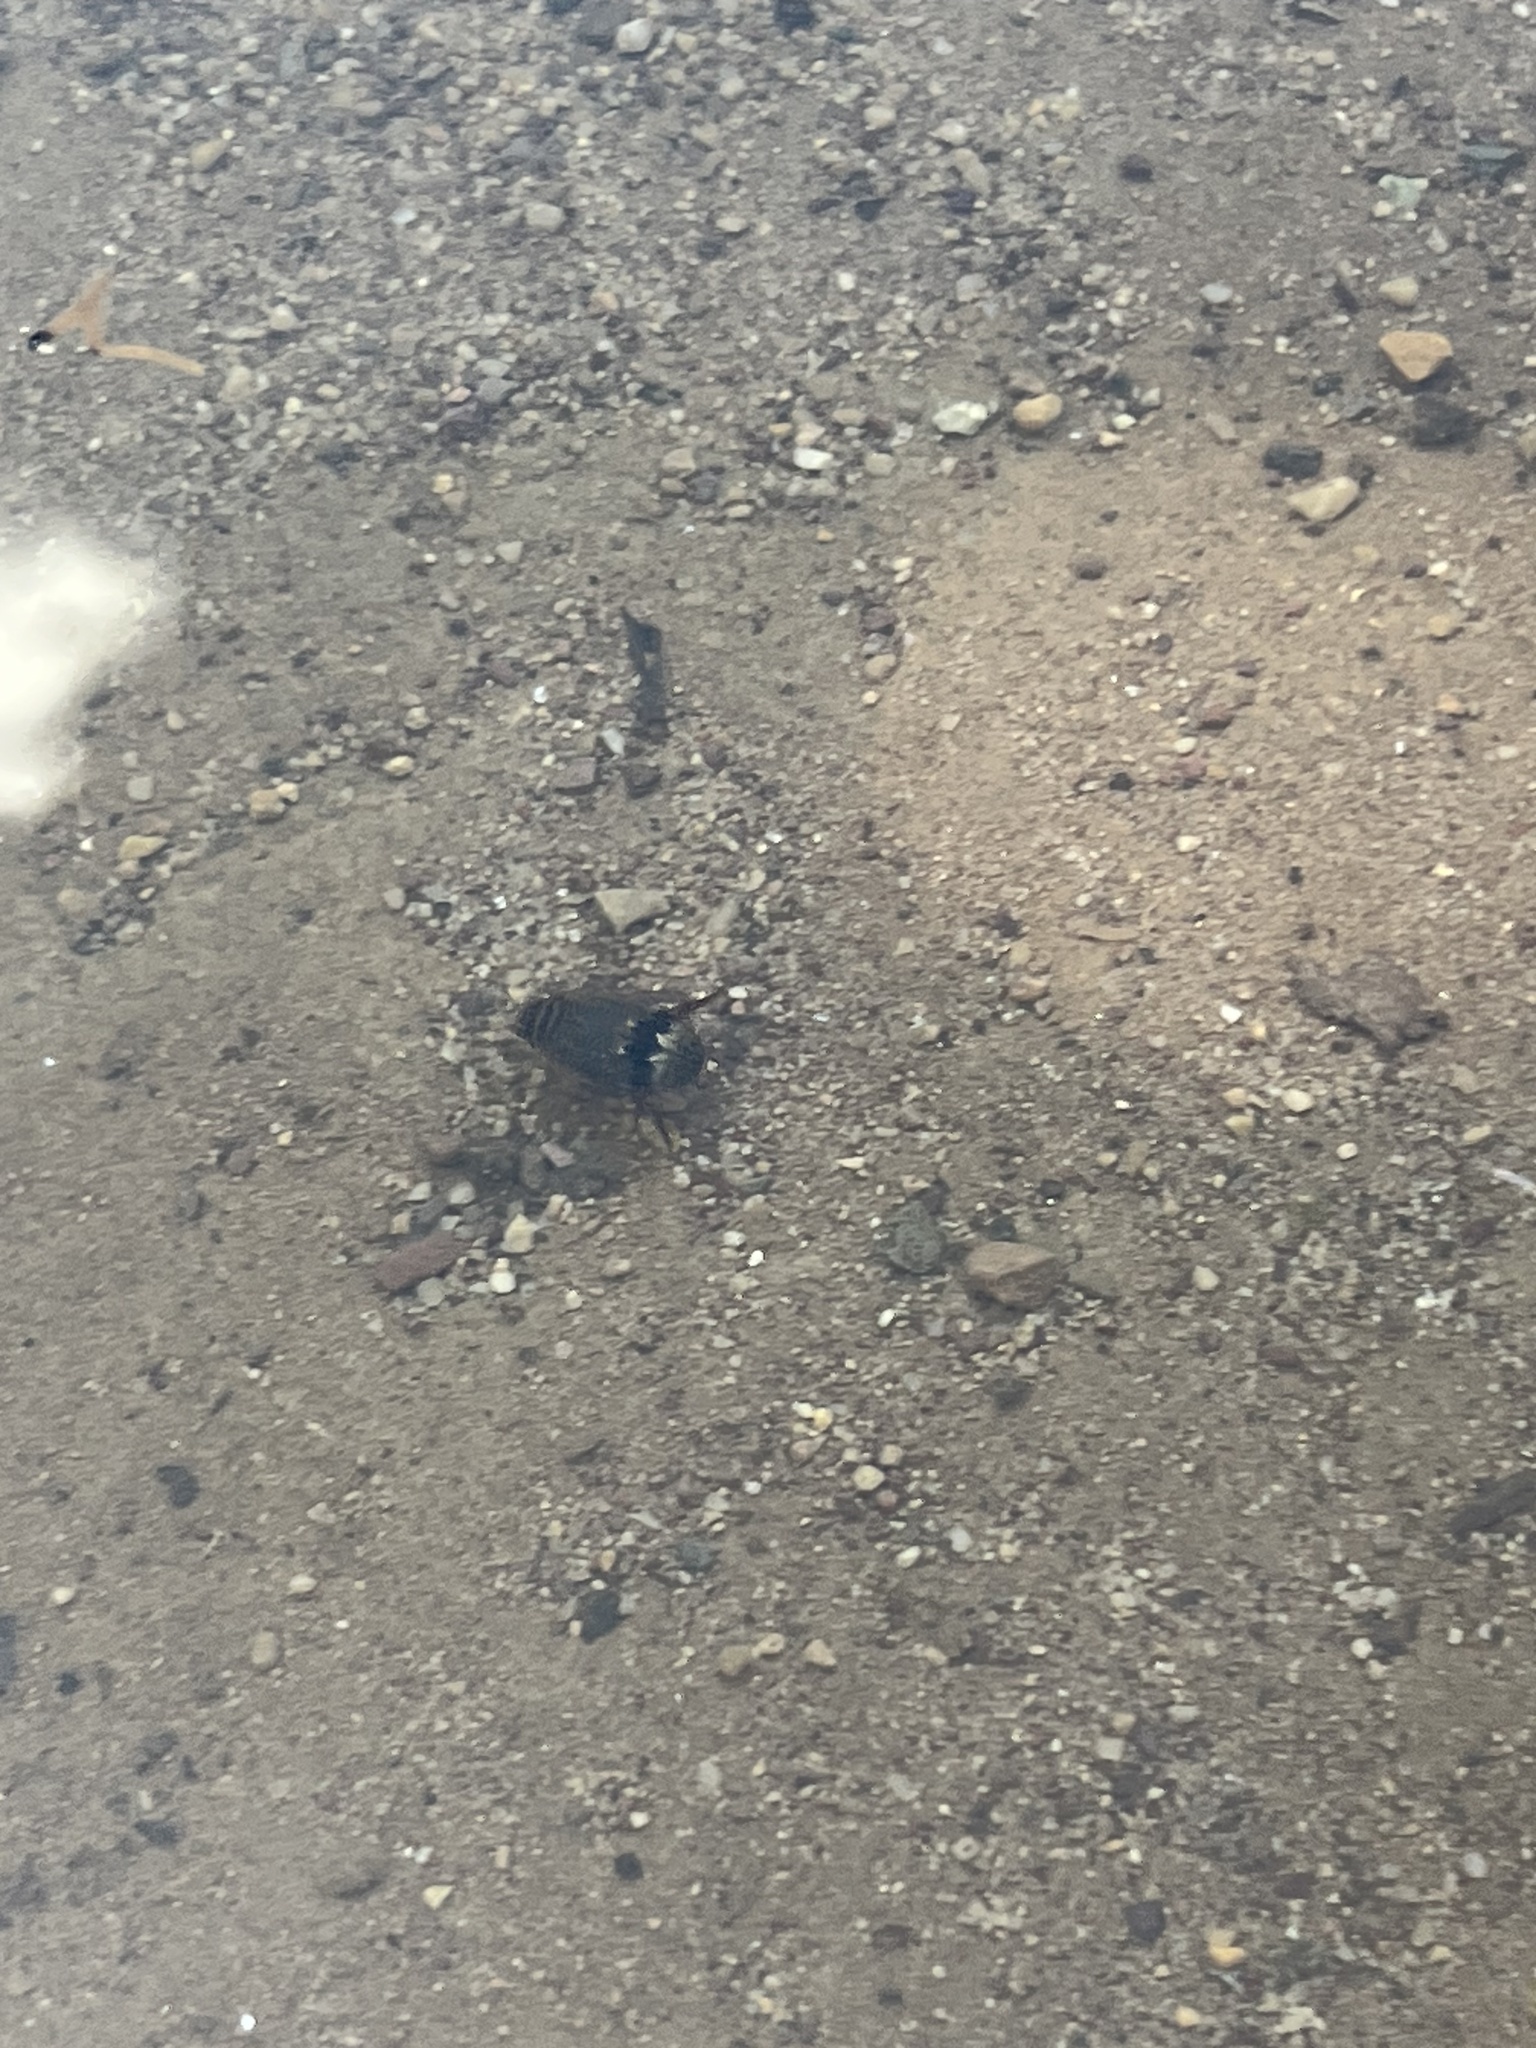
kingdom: Animalia
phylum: Arthropoda
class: Insecta
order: Coleoptera
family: Dytiscidae
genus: Thermonectus
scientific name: Thermonectus nigrofasciatus
